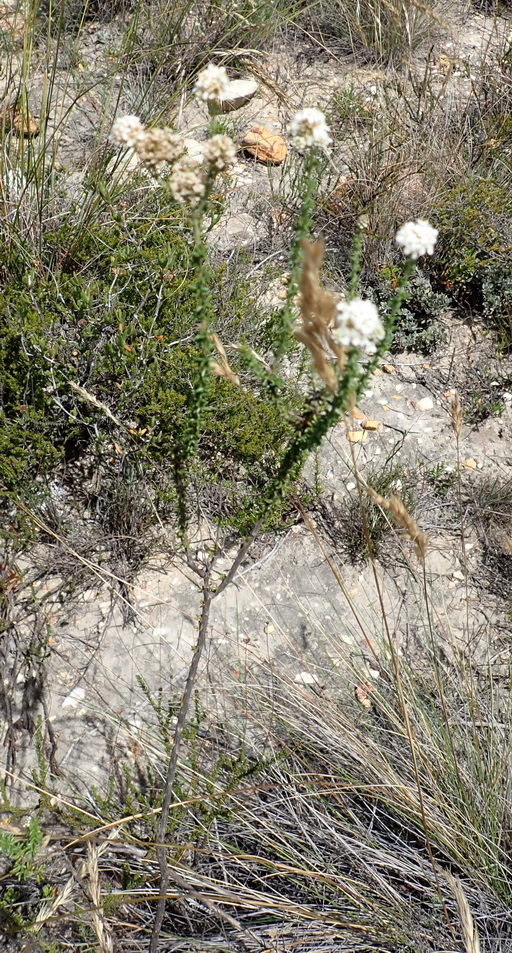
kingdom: Plantae
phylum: Tracheophyta
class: Magnoliopsida
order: Lamiales
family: Scrophulariaceae
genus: Selago
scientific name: Selago glomerata
